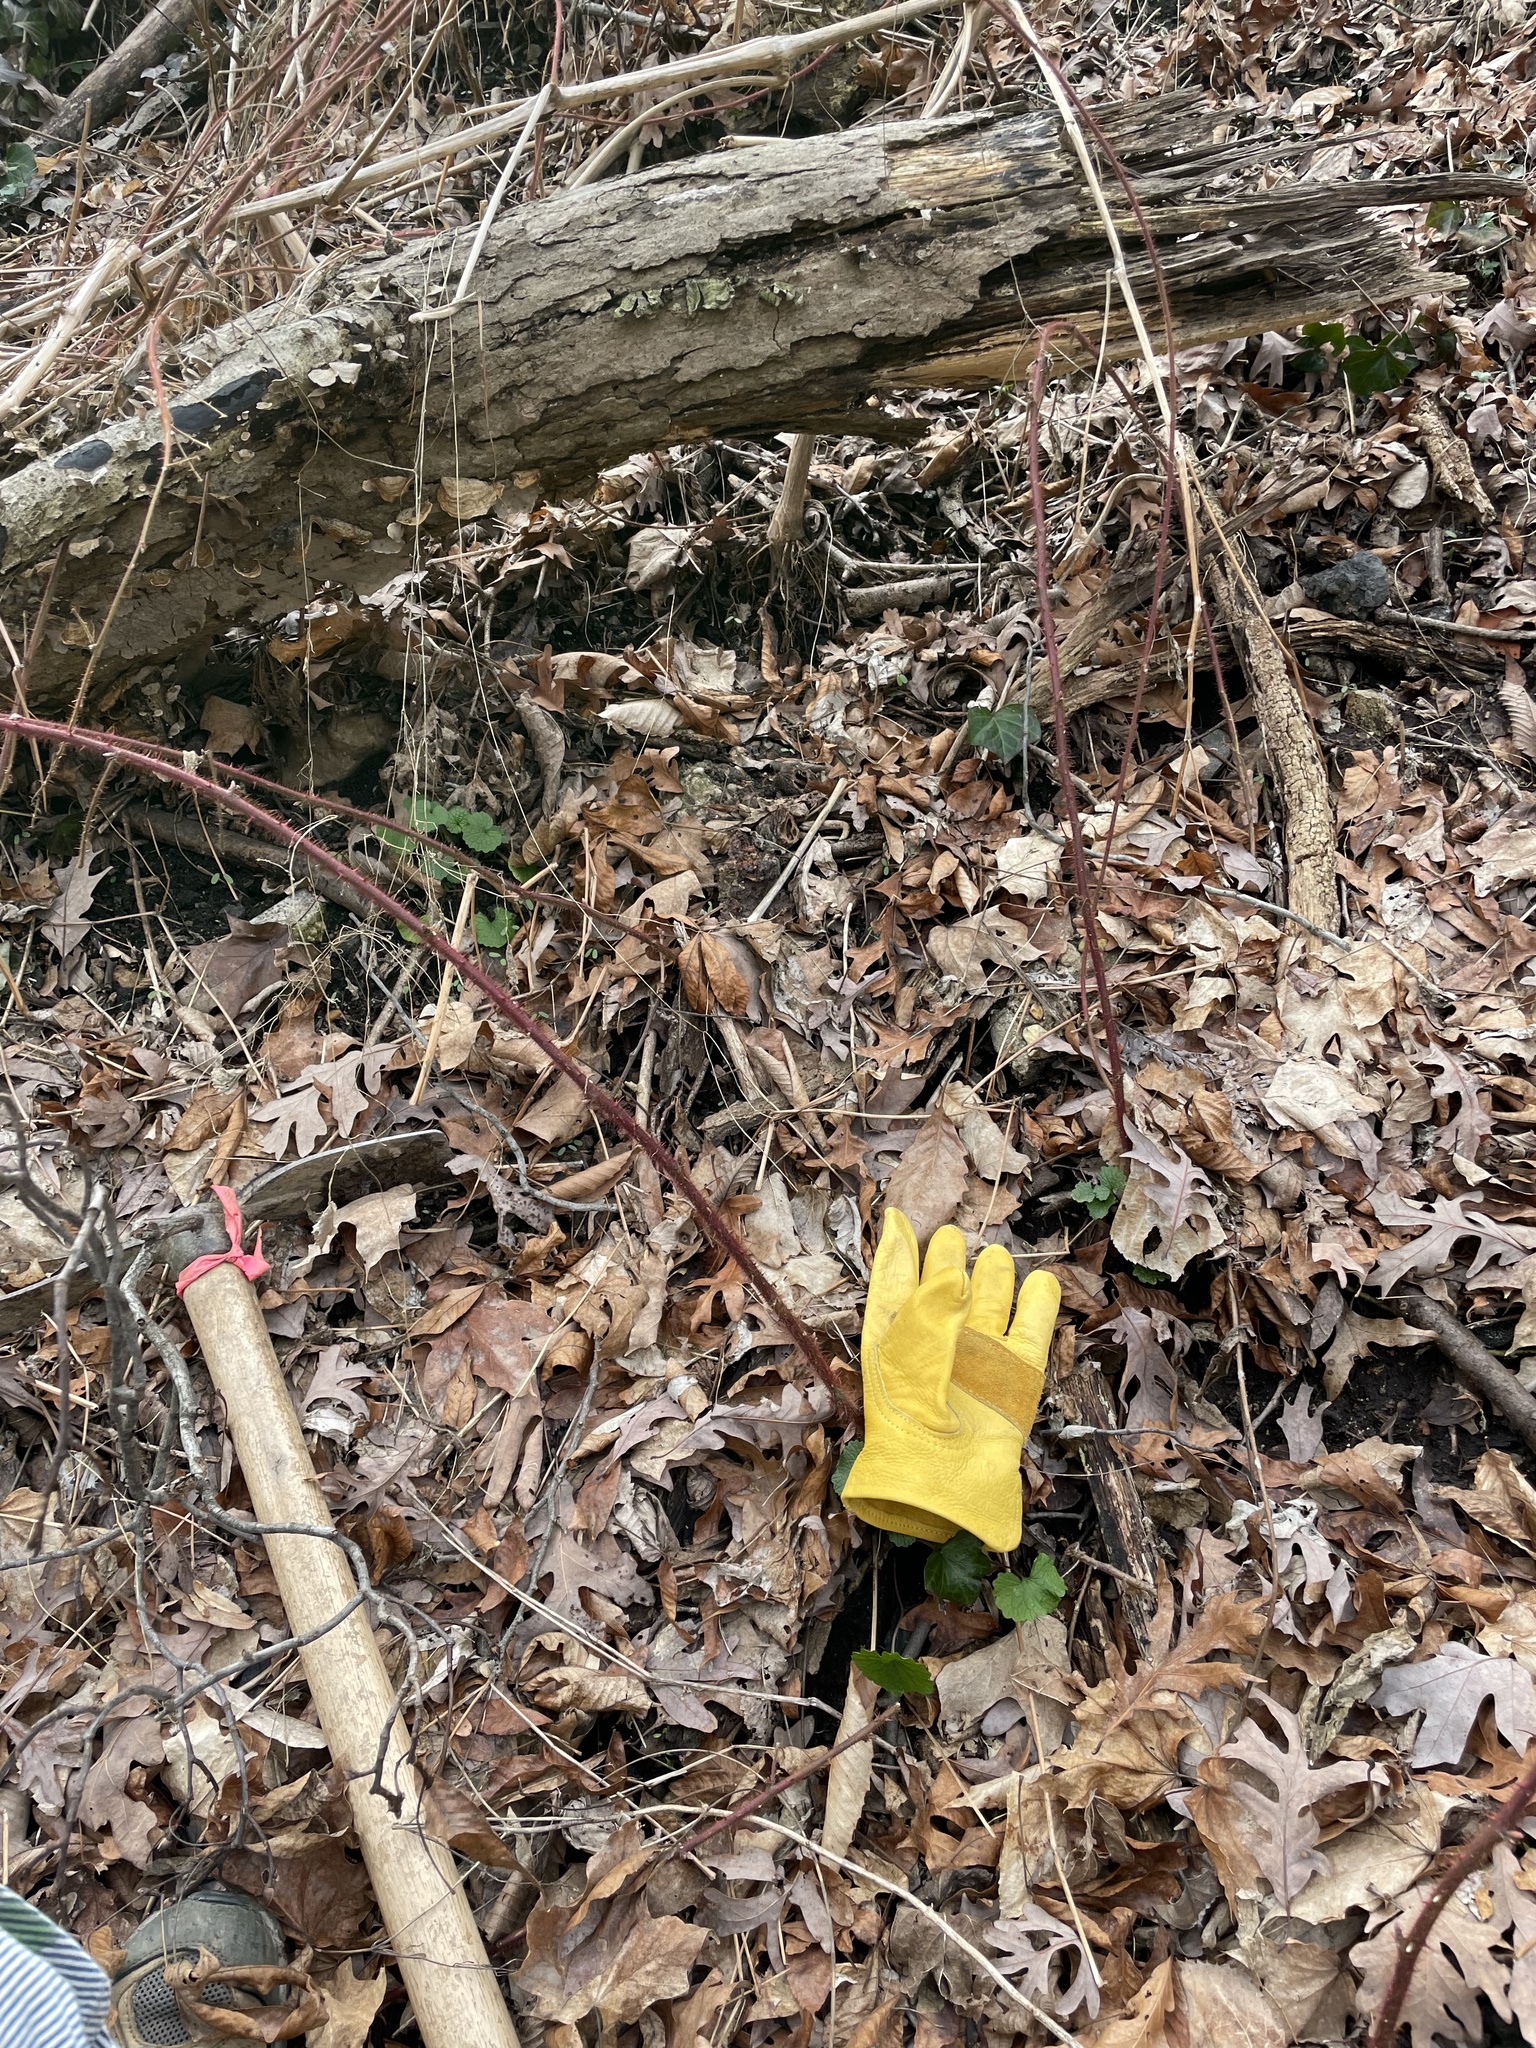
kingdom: Plantae
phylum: Tracheophyta
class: Magnoliopsida
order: Rosales
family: Rosaceae
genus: Rubus
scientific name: Rubus phoenicolasius
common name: Japanese wineberry
